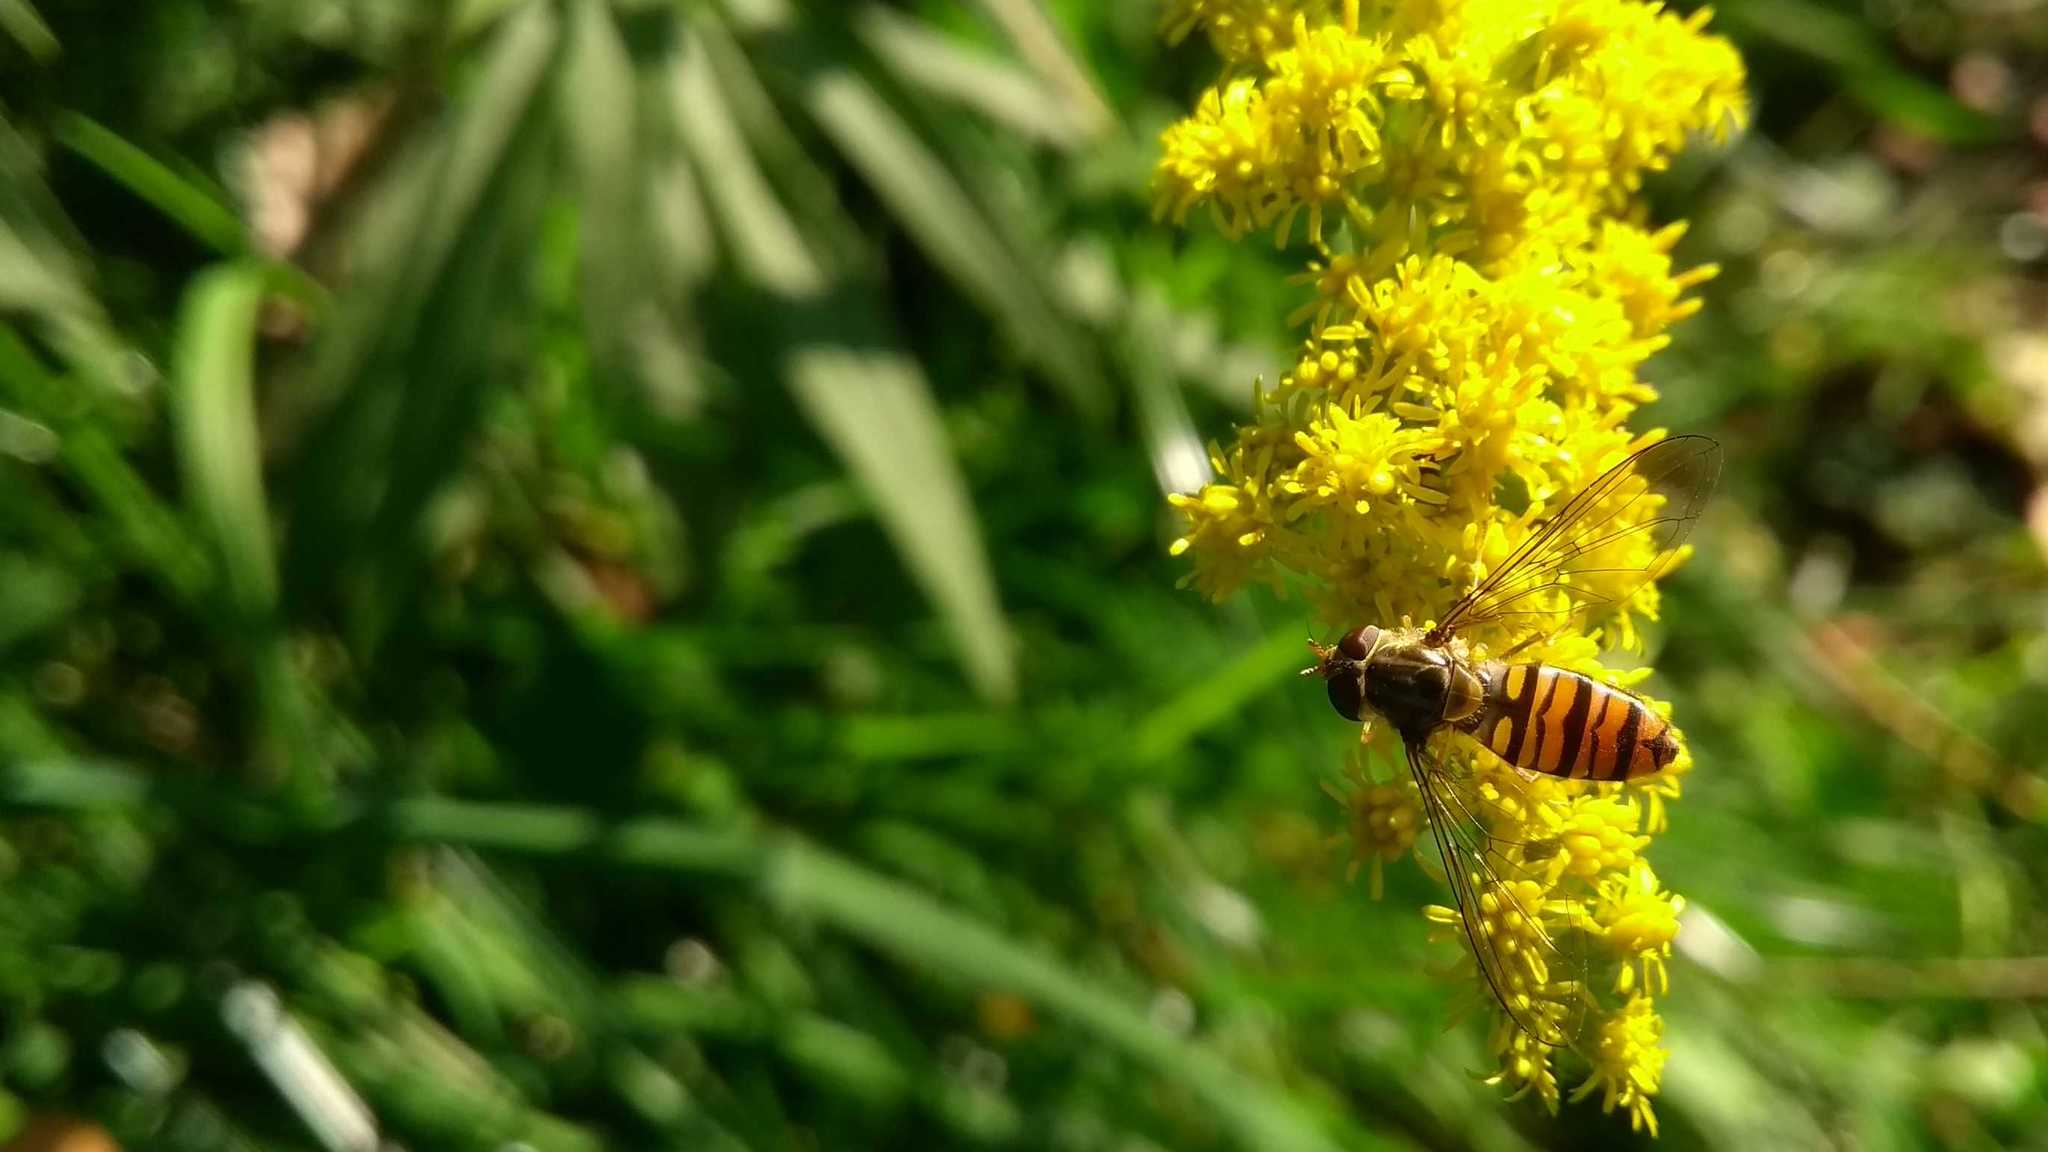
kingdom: Animalia
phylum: Arthropoda
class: Insecta
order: Diptera
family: Syrphidae
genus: Episyrphus
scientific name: Episyrphus balteatus
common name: Marmalade hoverfly
